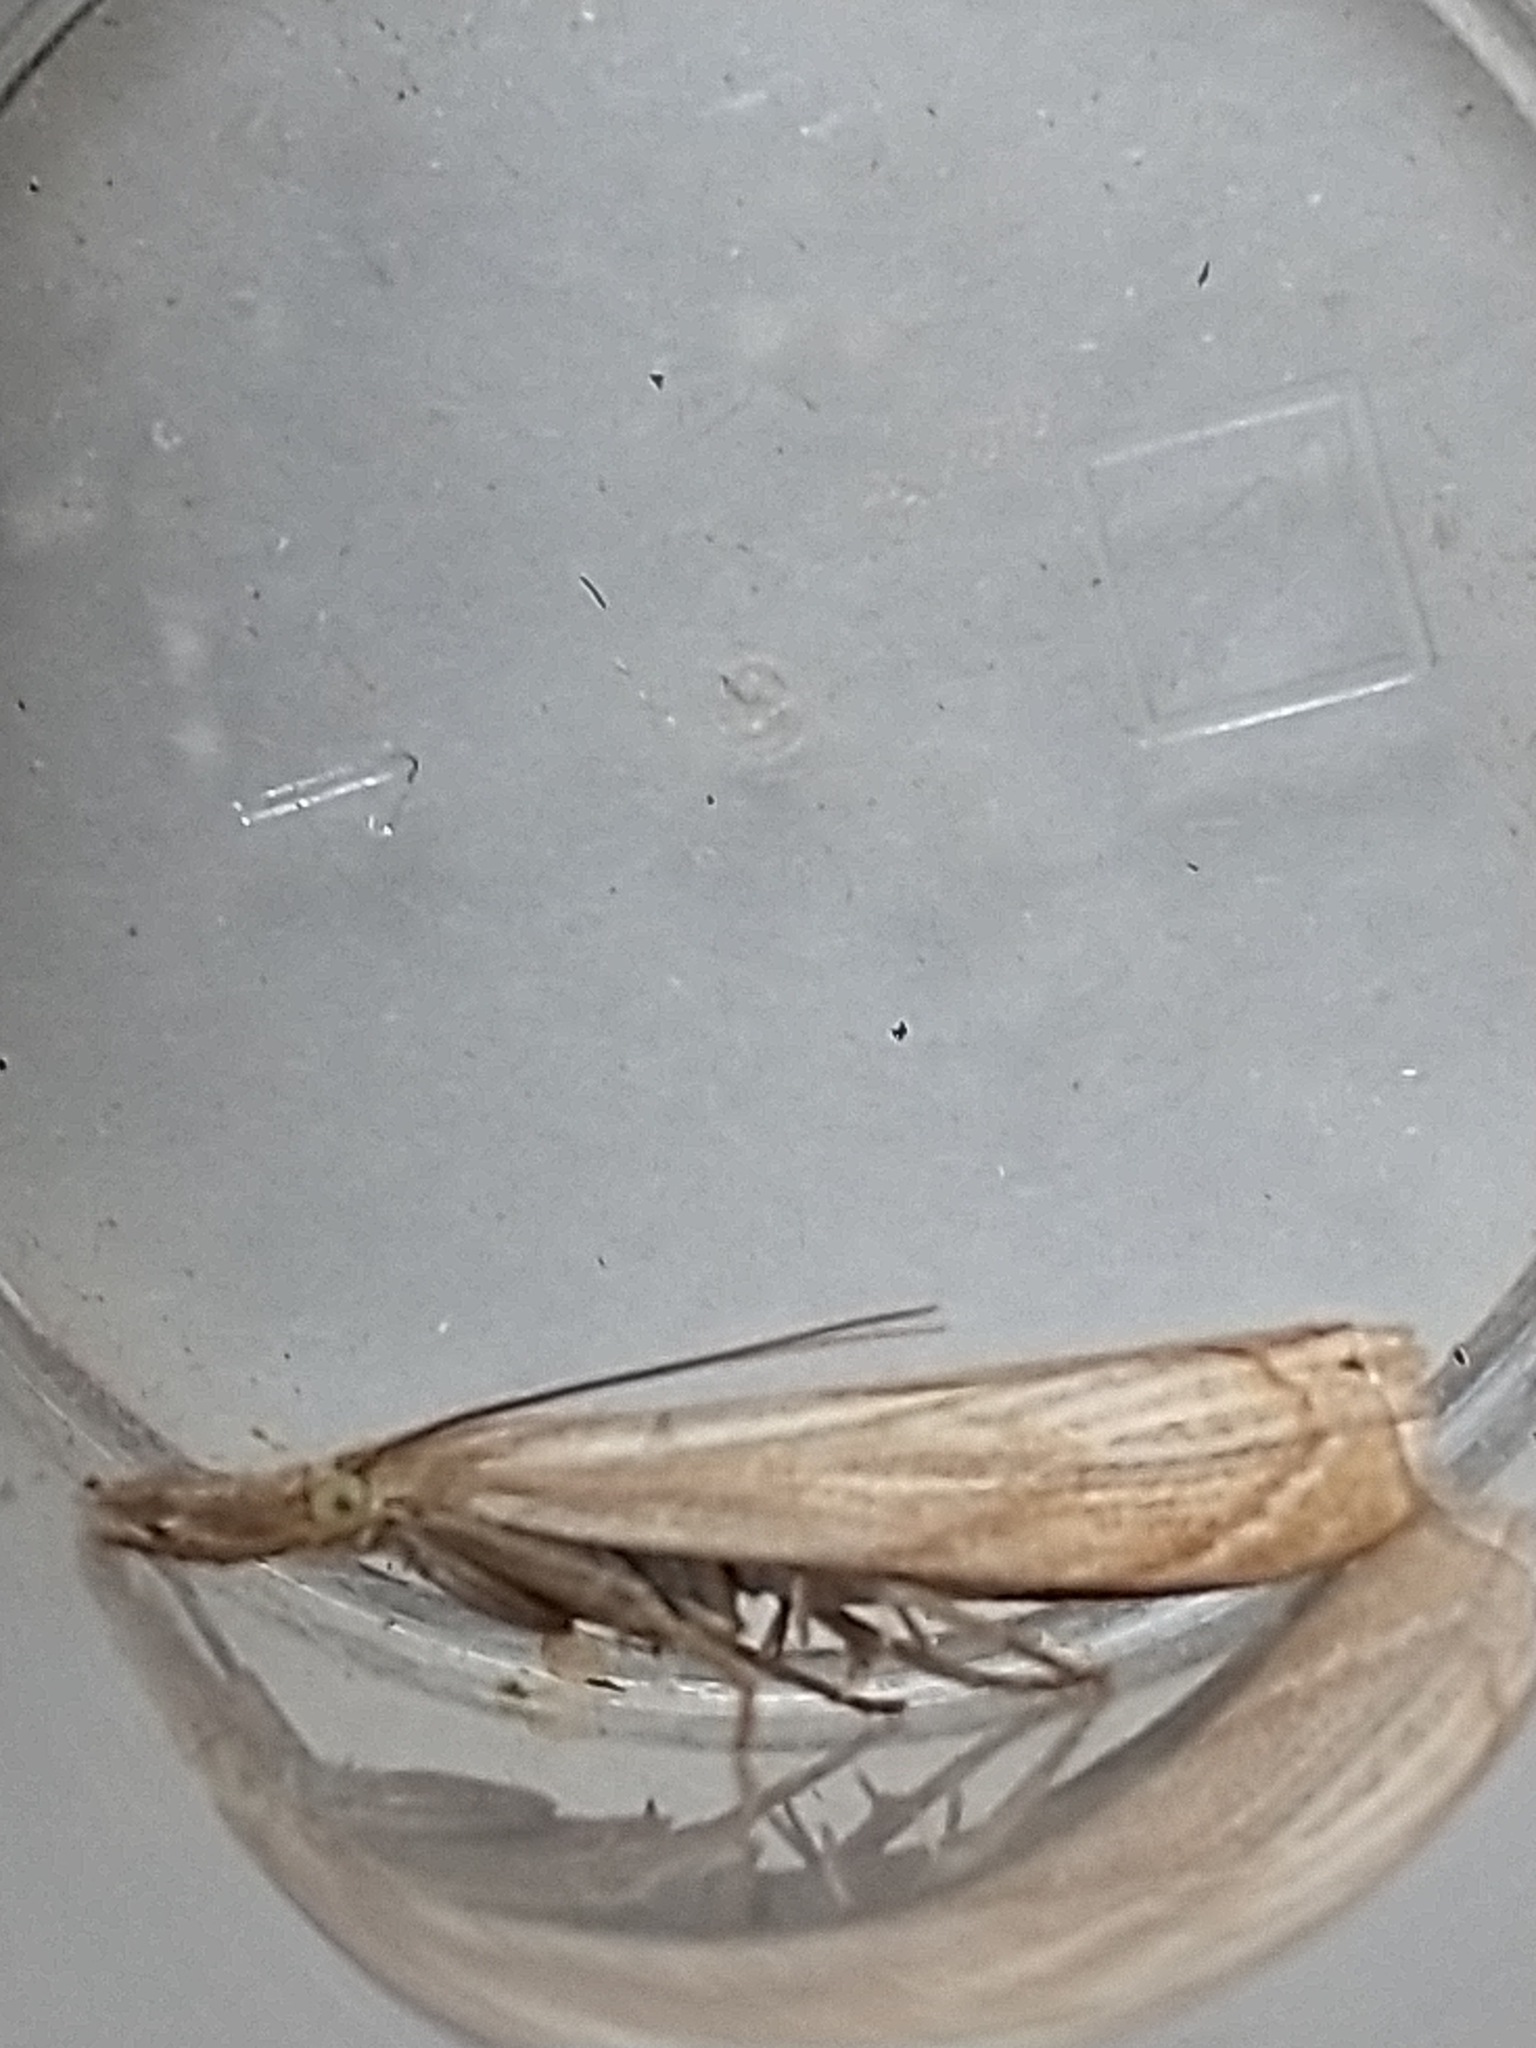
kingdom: Animalia
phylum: Arthropoda
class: Insecta
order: Lepidoptera
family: Crambidae
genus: Chrysoteuchia
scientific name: Chrysoteuchia culmella
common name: Garden grass-veneer
